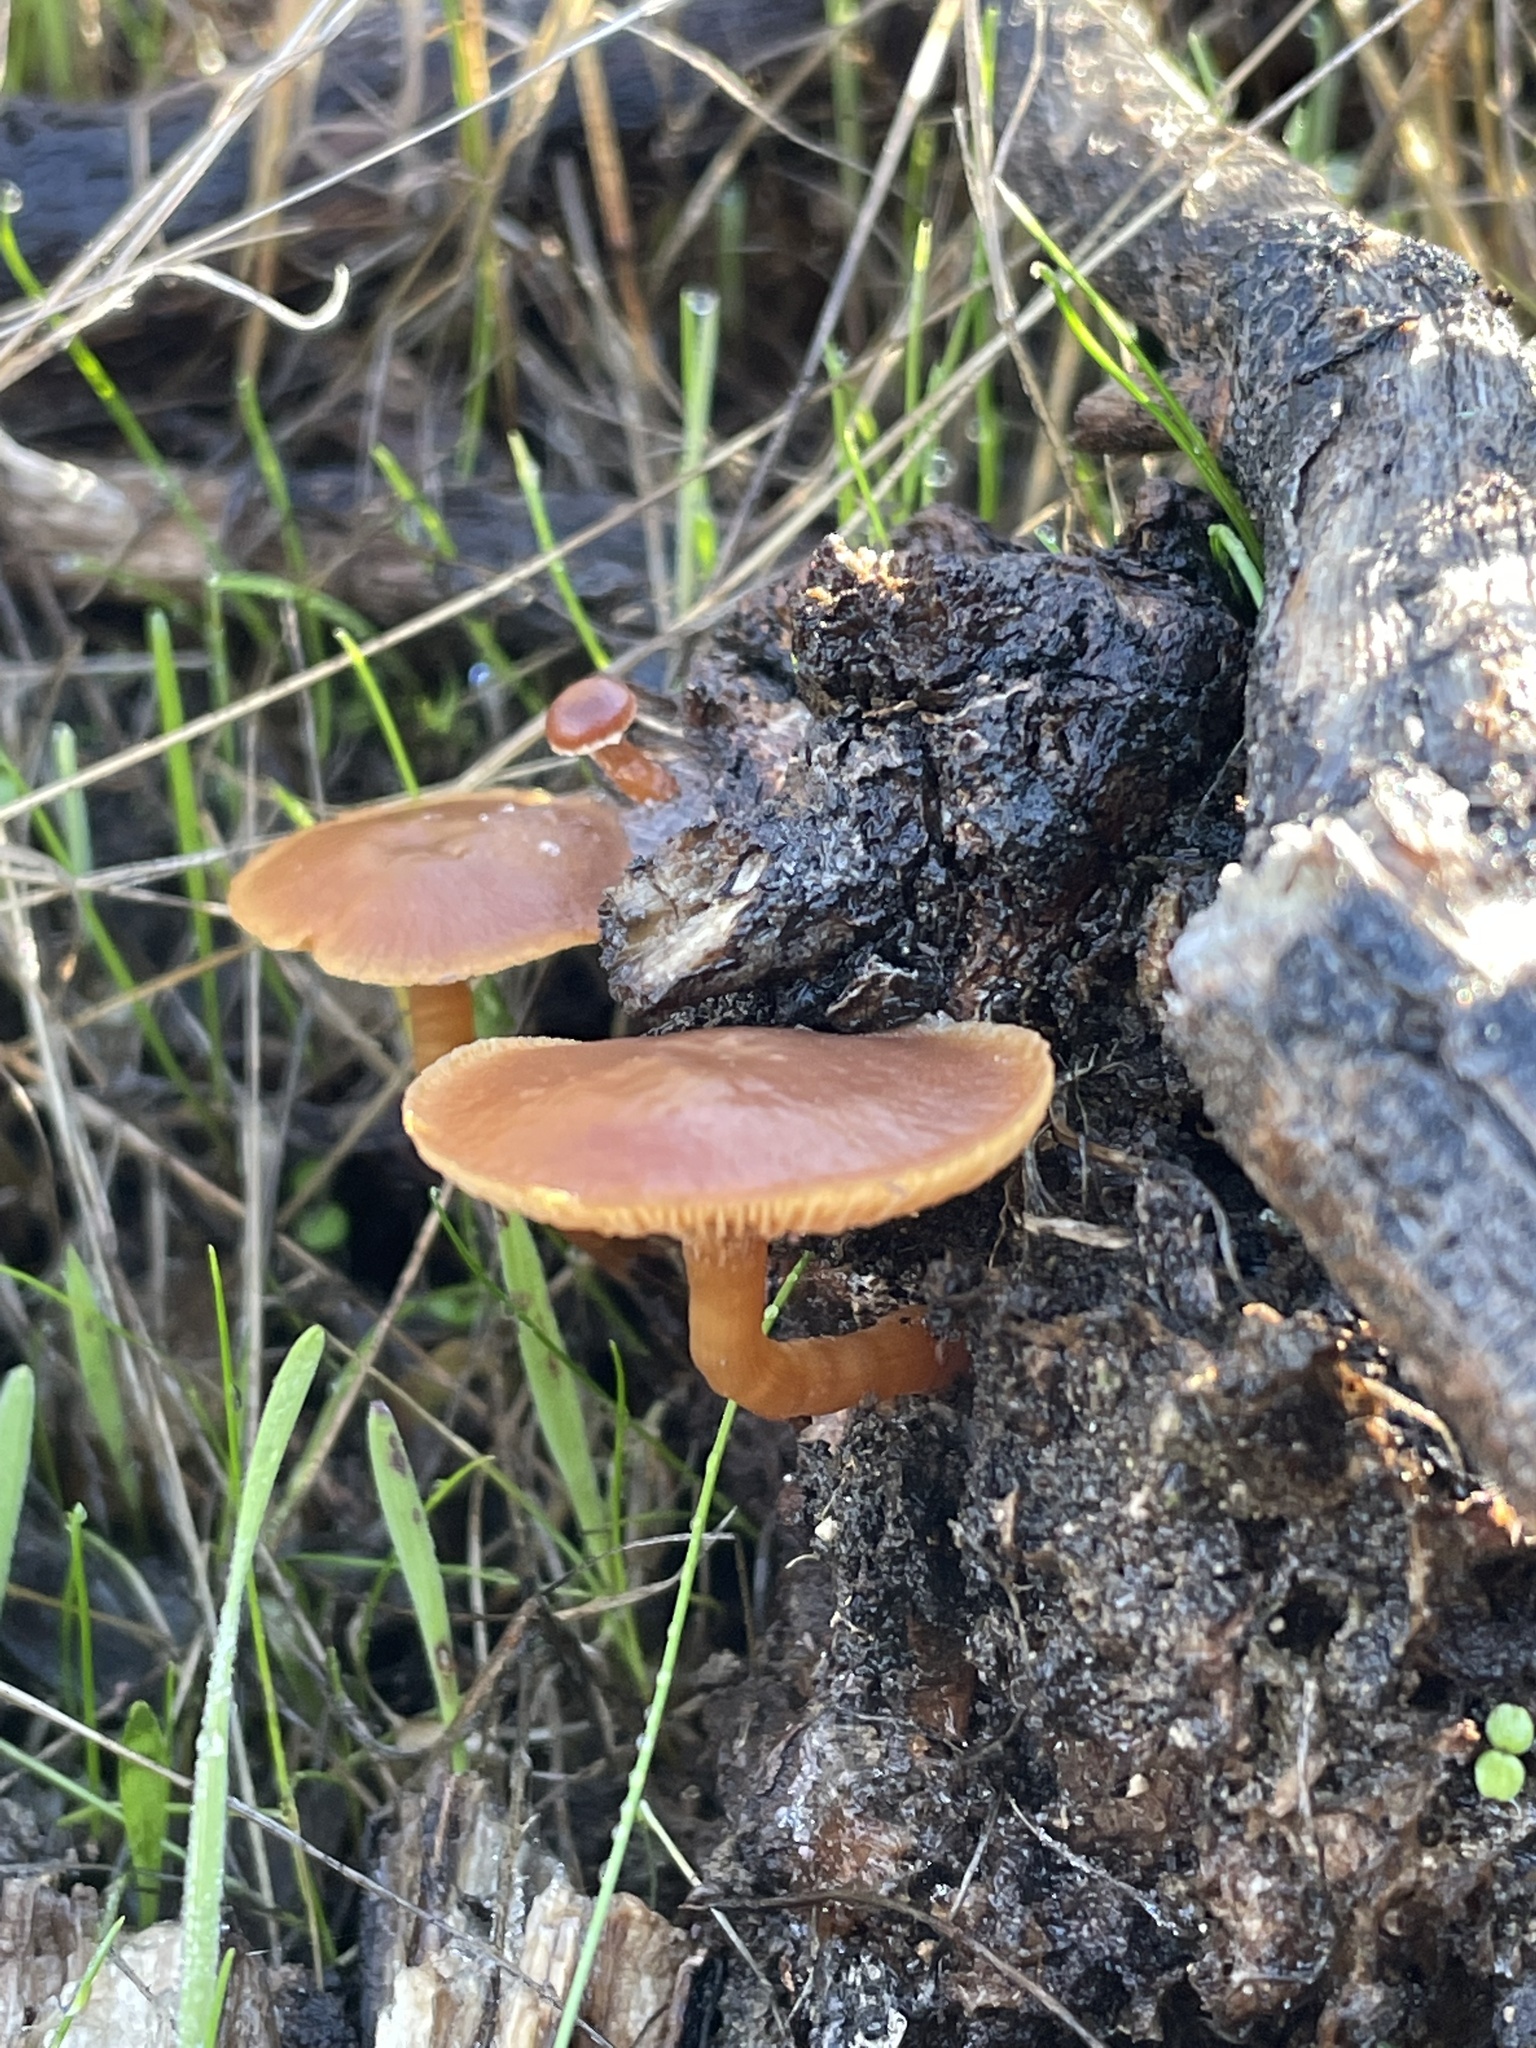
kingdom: Fungi
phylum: Basidiomycota
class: Agaricomycetes
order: Agaricales
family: Tubariaceae
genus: Tubaria
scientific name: Tubaria furfuracea
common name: Scurfy twiglet
